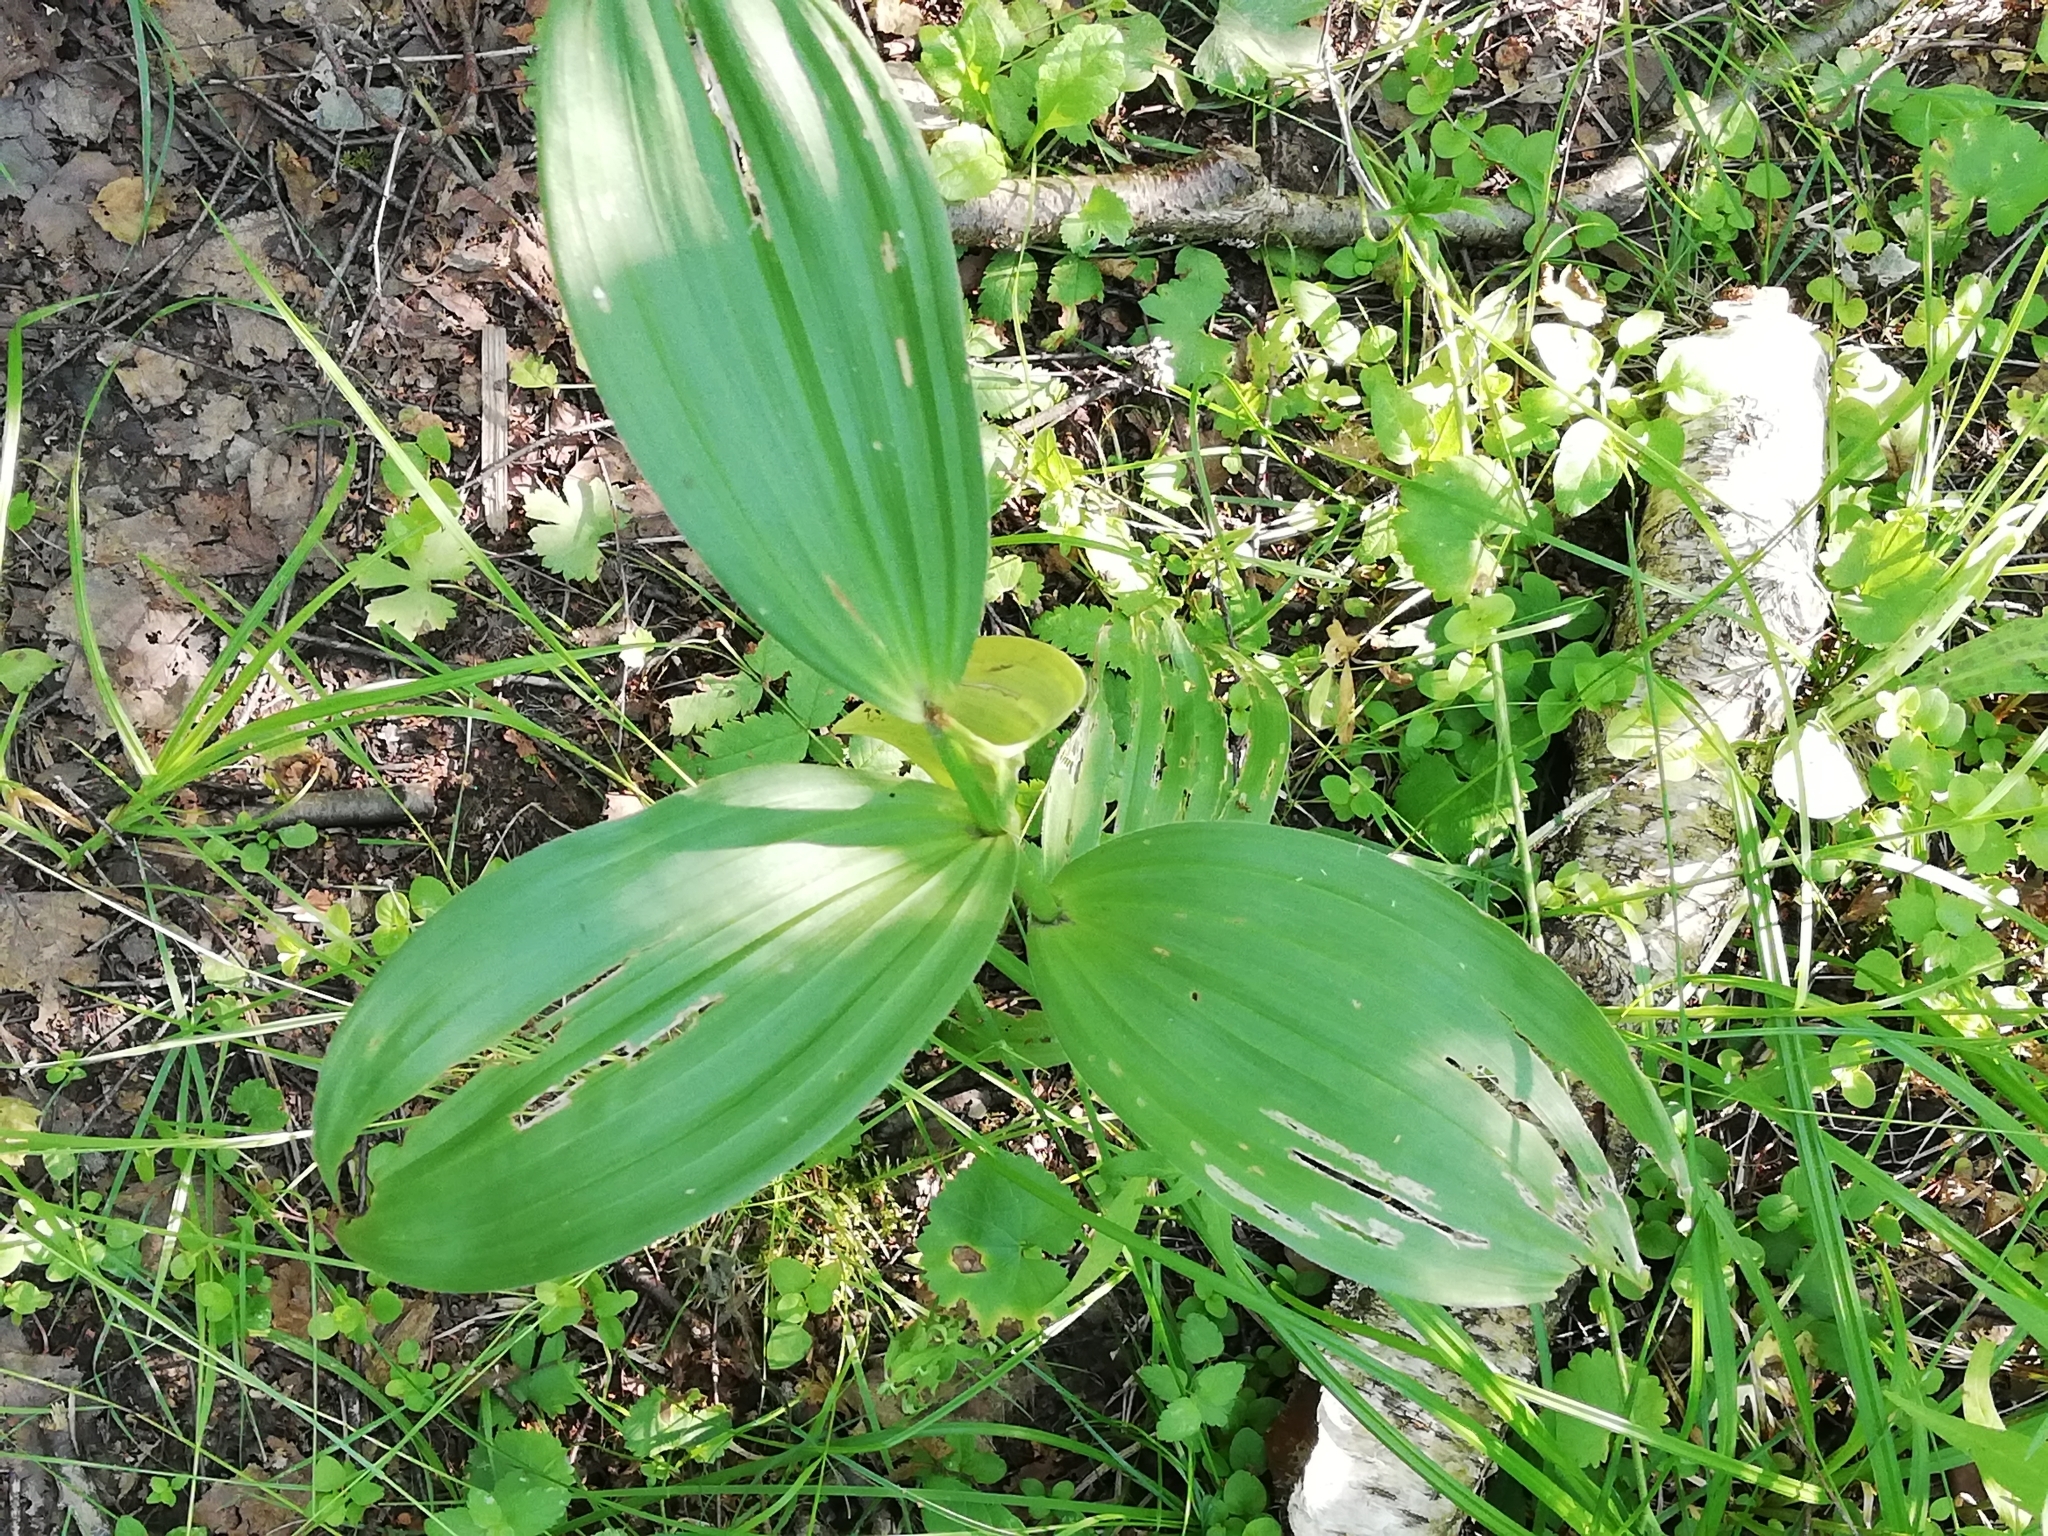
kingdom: Plantae
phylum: Tracheophyta
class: Liliopsida
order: Liliales
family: Melanthiaceae
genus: Veratrum
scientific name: Veratrum lobelianum
